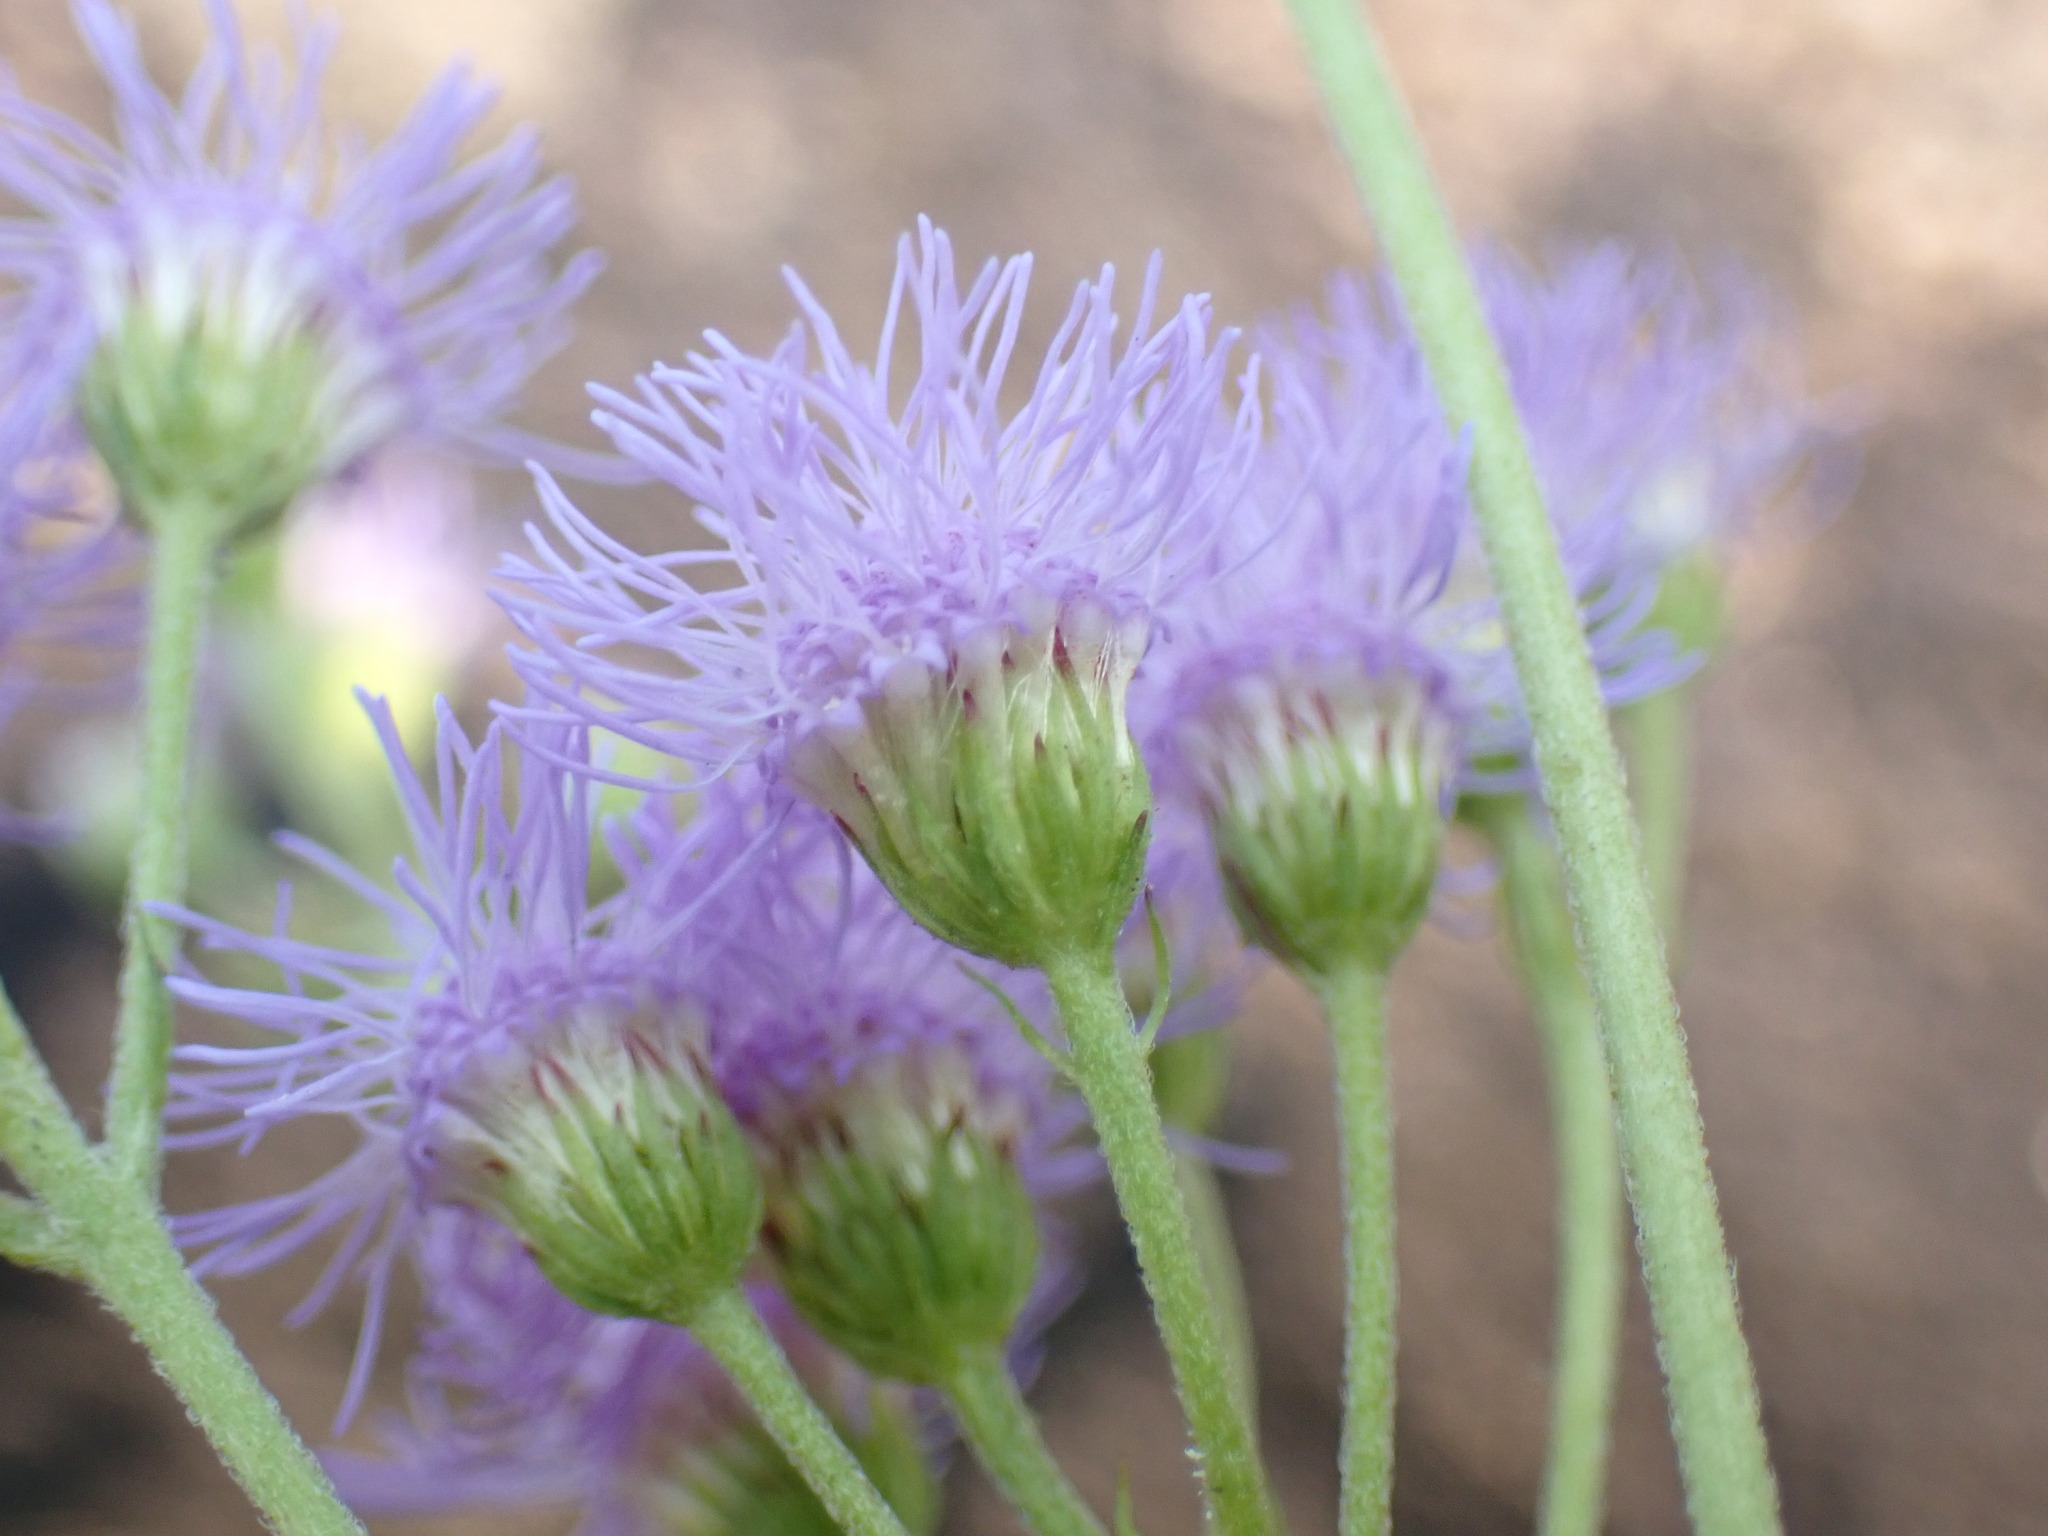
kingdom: Plantae
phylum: Tracheophyta
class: Magnoliopsida
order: Asterales
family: Asteraceae
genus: Conoclinium
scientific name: Conoclinium coelestinum
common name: Blue mistflower
